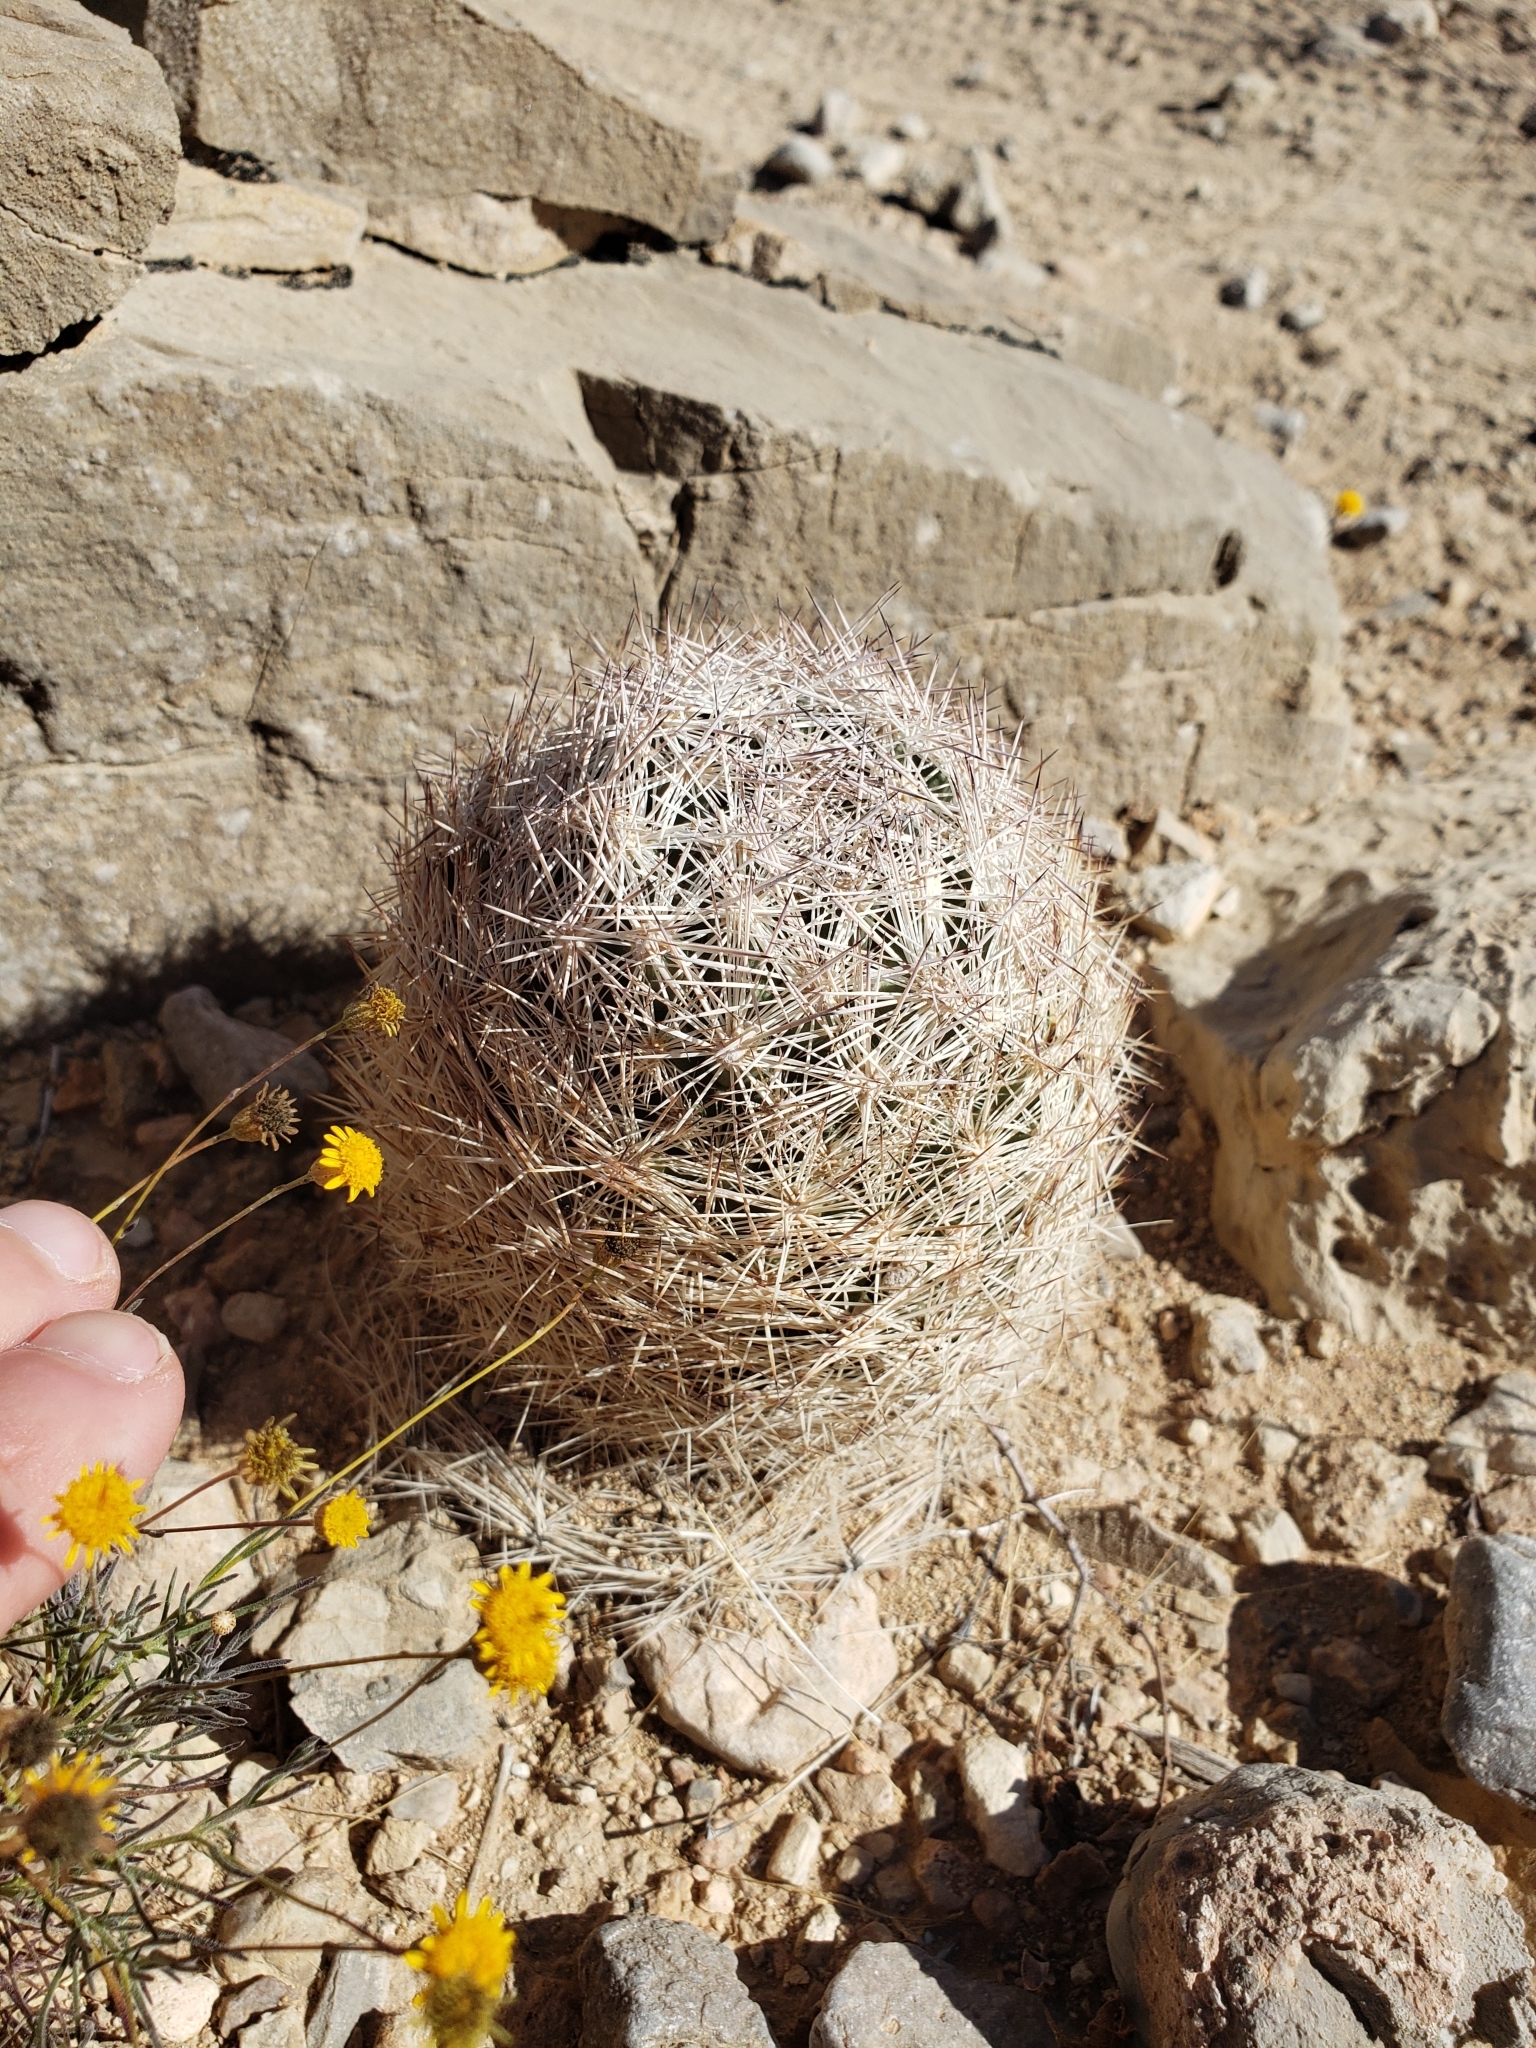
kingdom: Plantae
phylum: Tracheophyta
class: Magnoliopsida
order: Caryophyllales
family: Cactaceae
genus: Pelecyphora
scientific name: Pelecyphora dasyacantha
